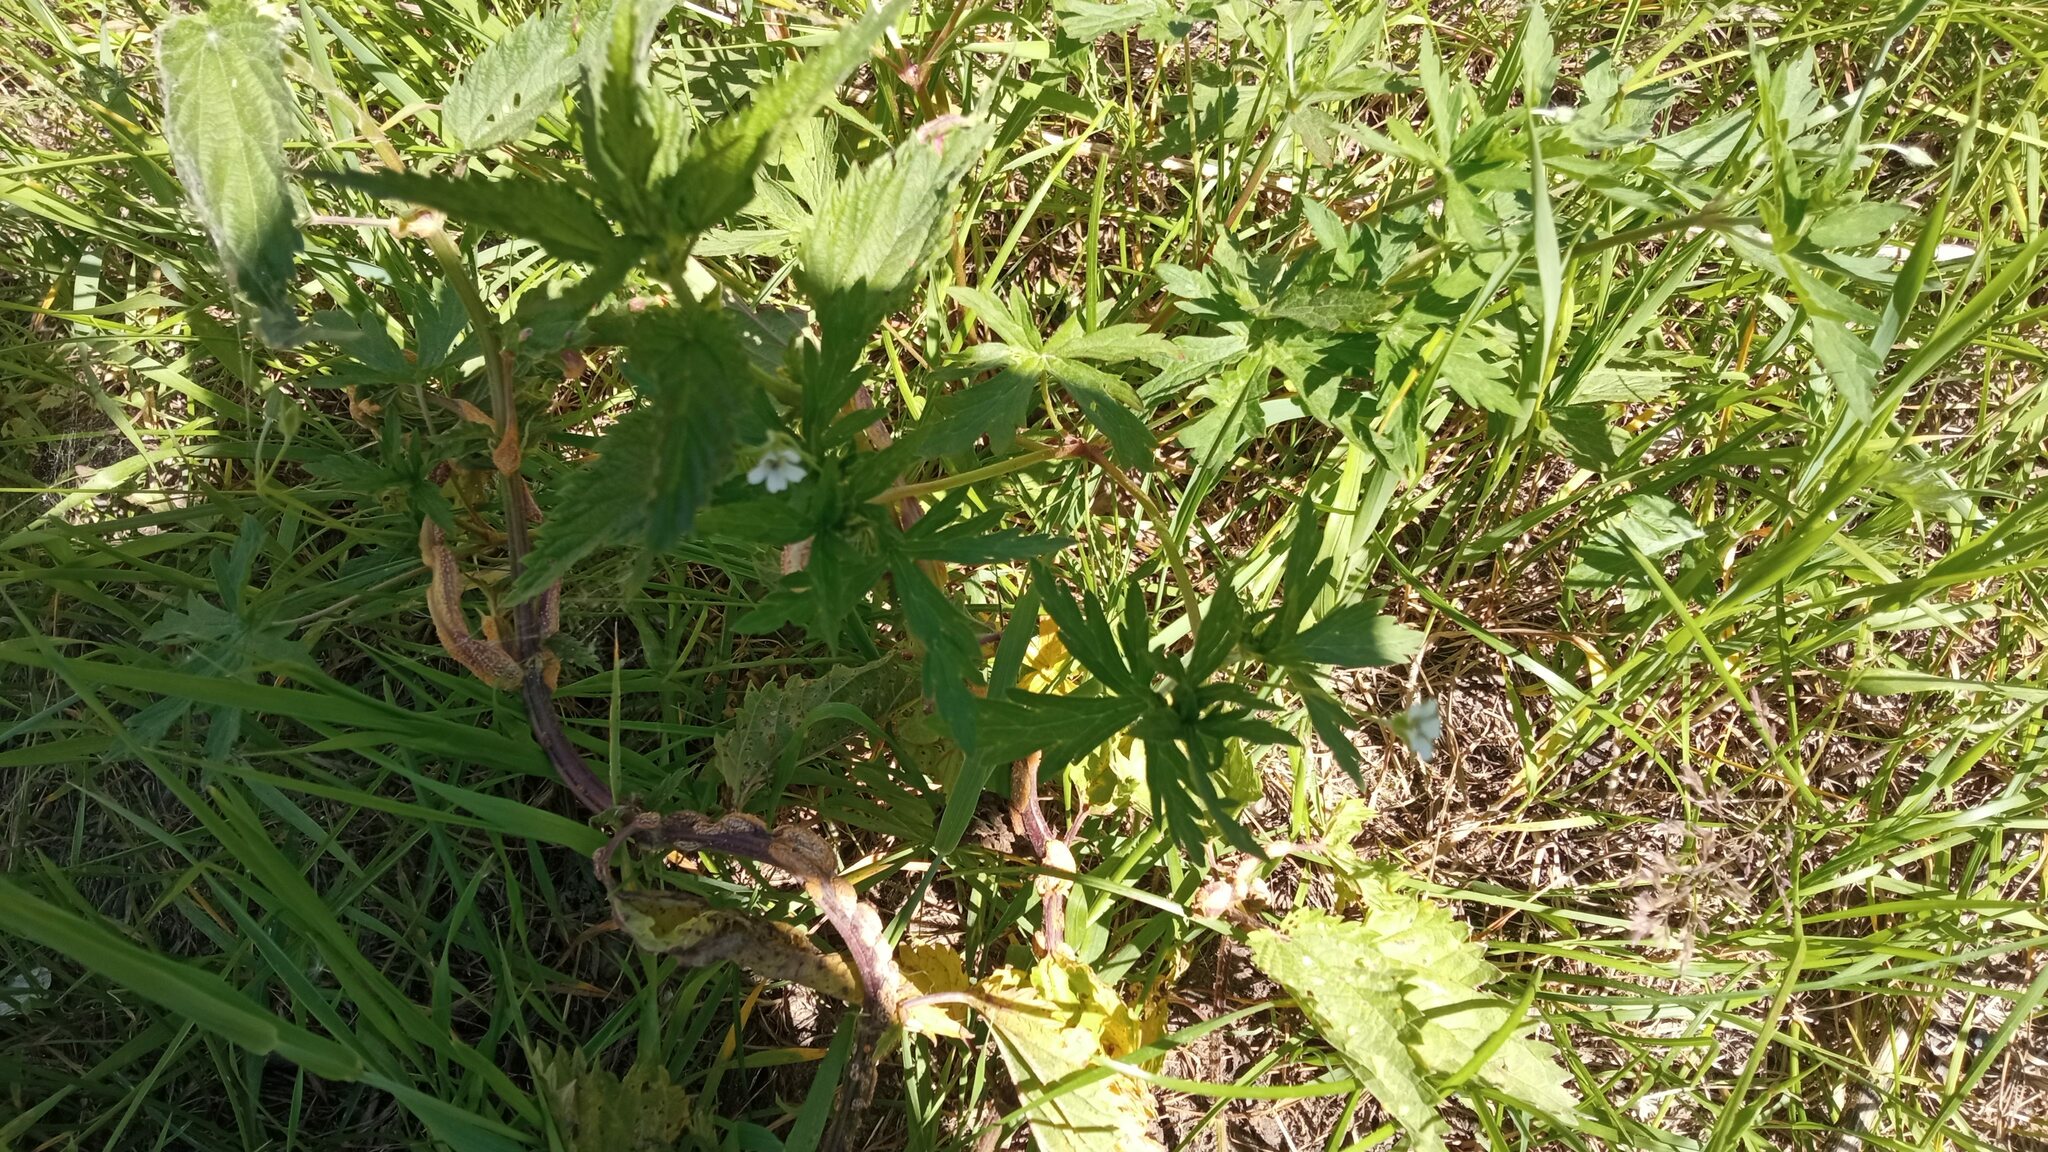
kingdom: Plantae
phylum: Tracheophyta
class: Magnoliopsida
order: Geraniales
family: Geraniaceae
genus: Geranium
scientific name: Geranium sibiricum
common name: Siberian crane's-bill
